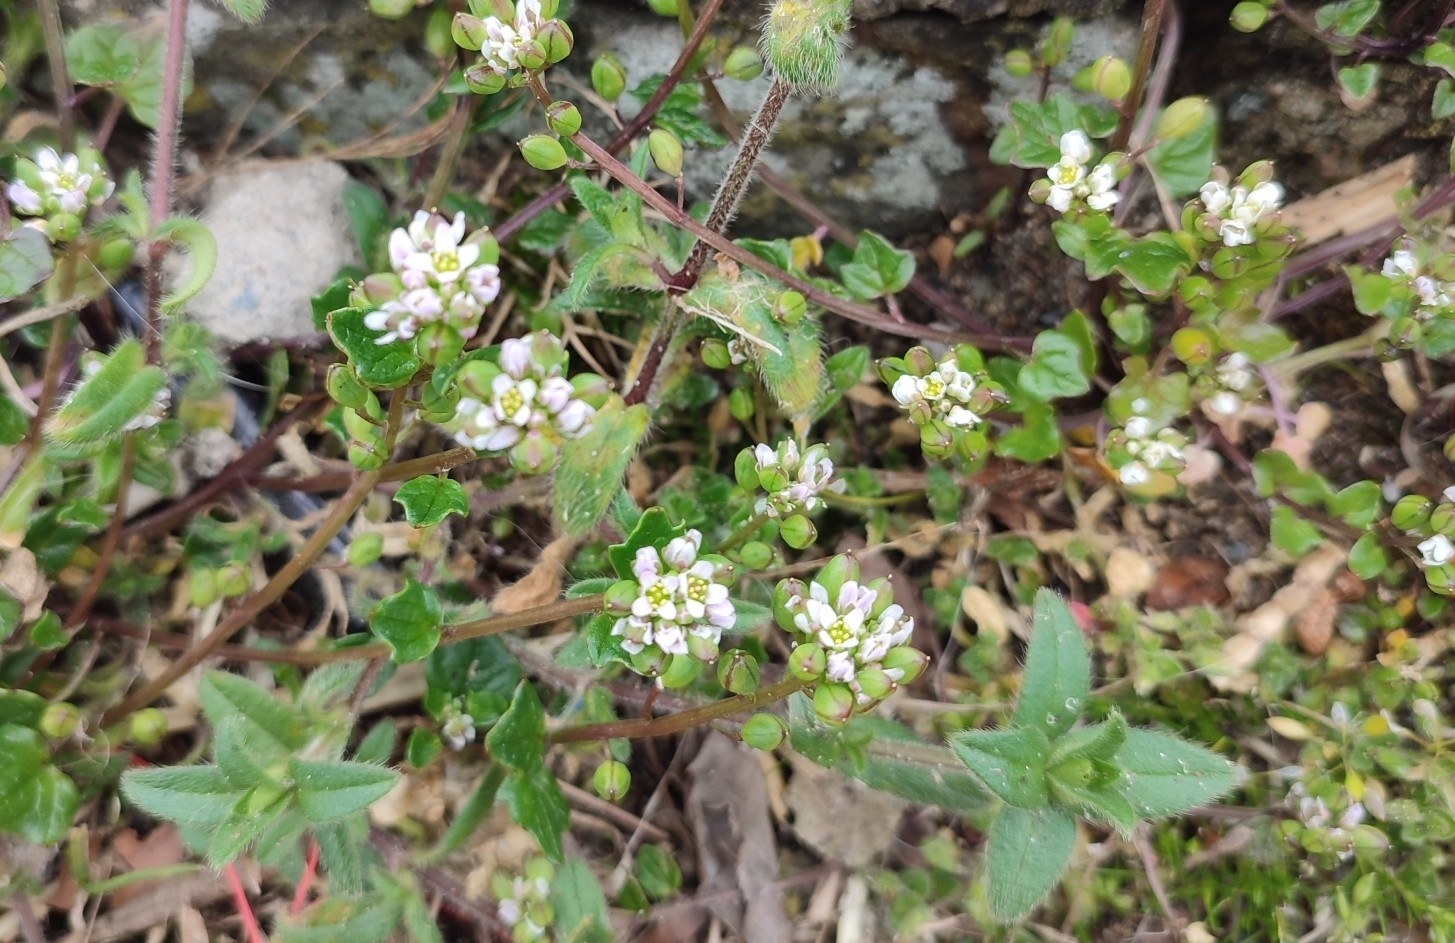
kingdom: Plantae
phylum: Tracheophyta
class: Magnoliopsida
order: Brassicales
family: Brassicaceae
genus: Cochlearia
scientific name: Cochlearia danica
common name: Early scurvygrass
